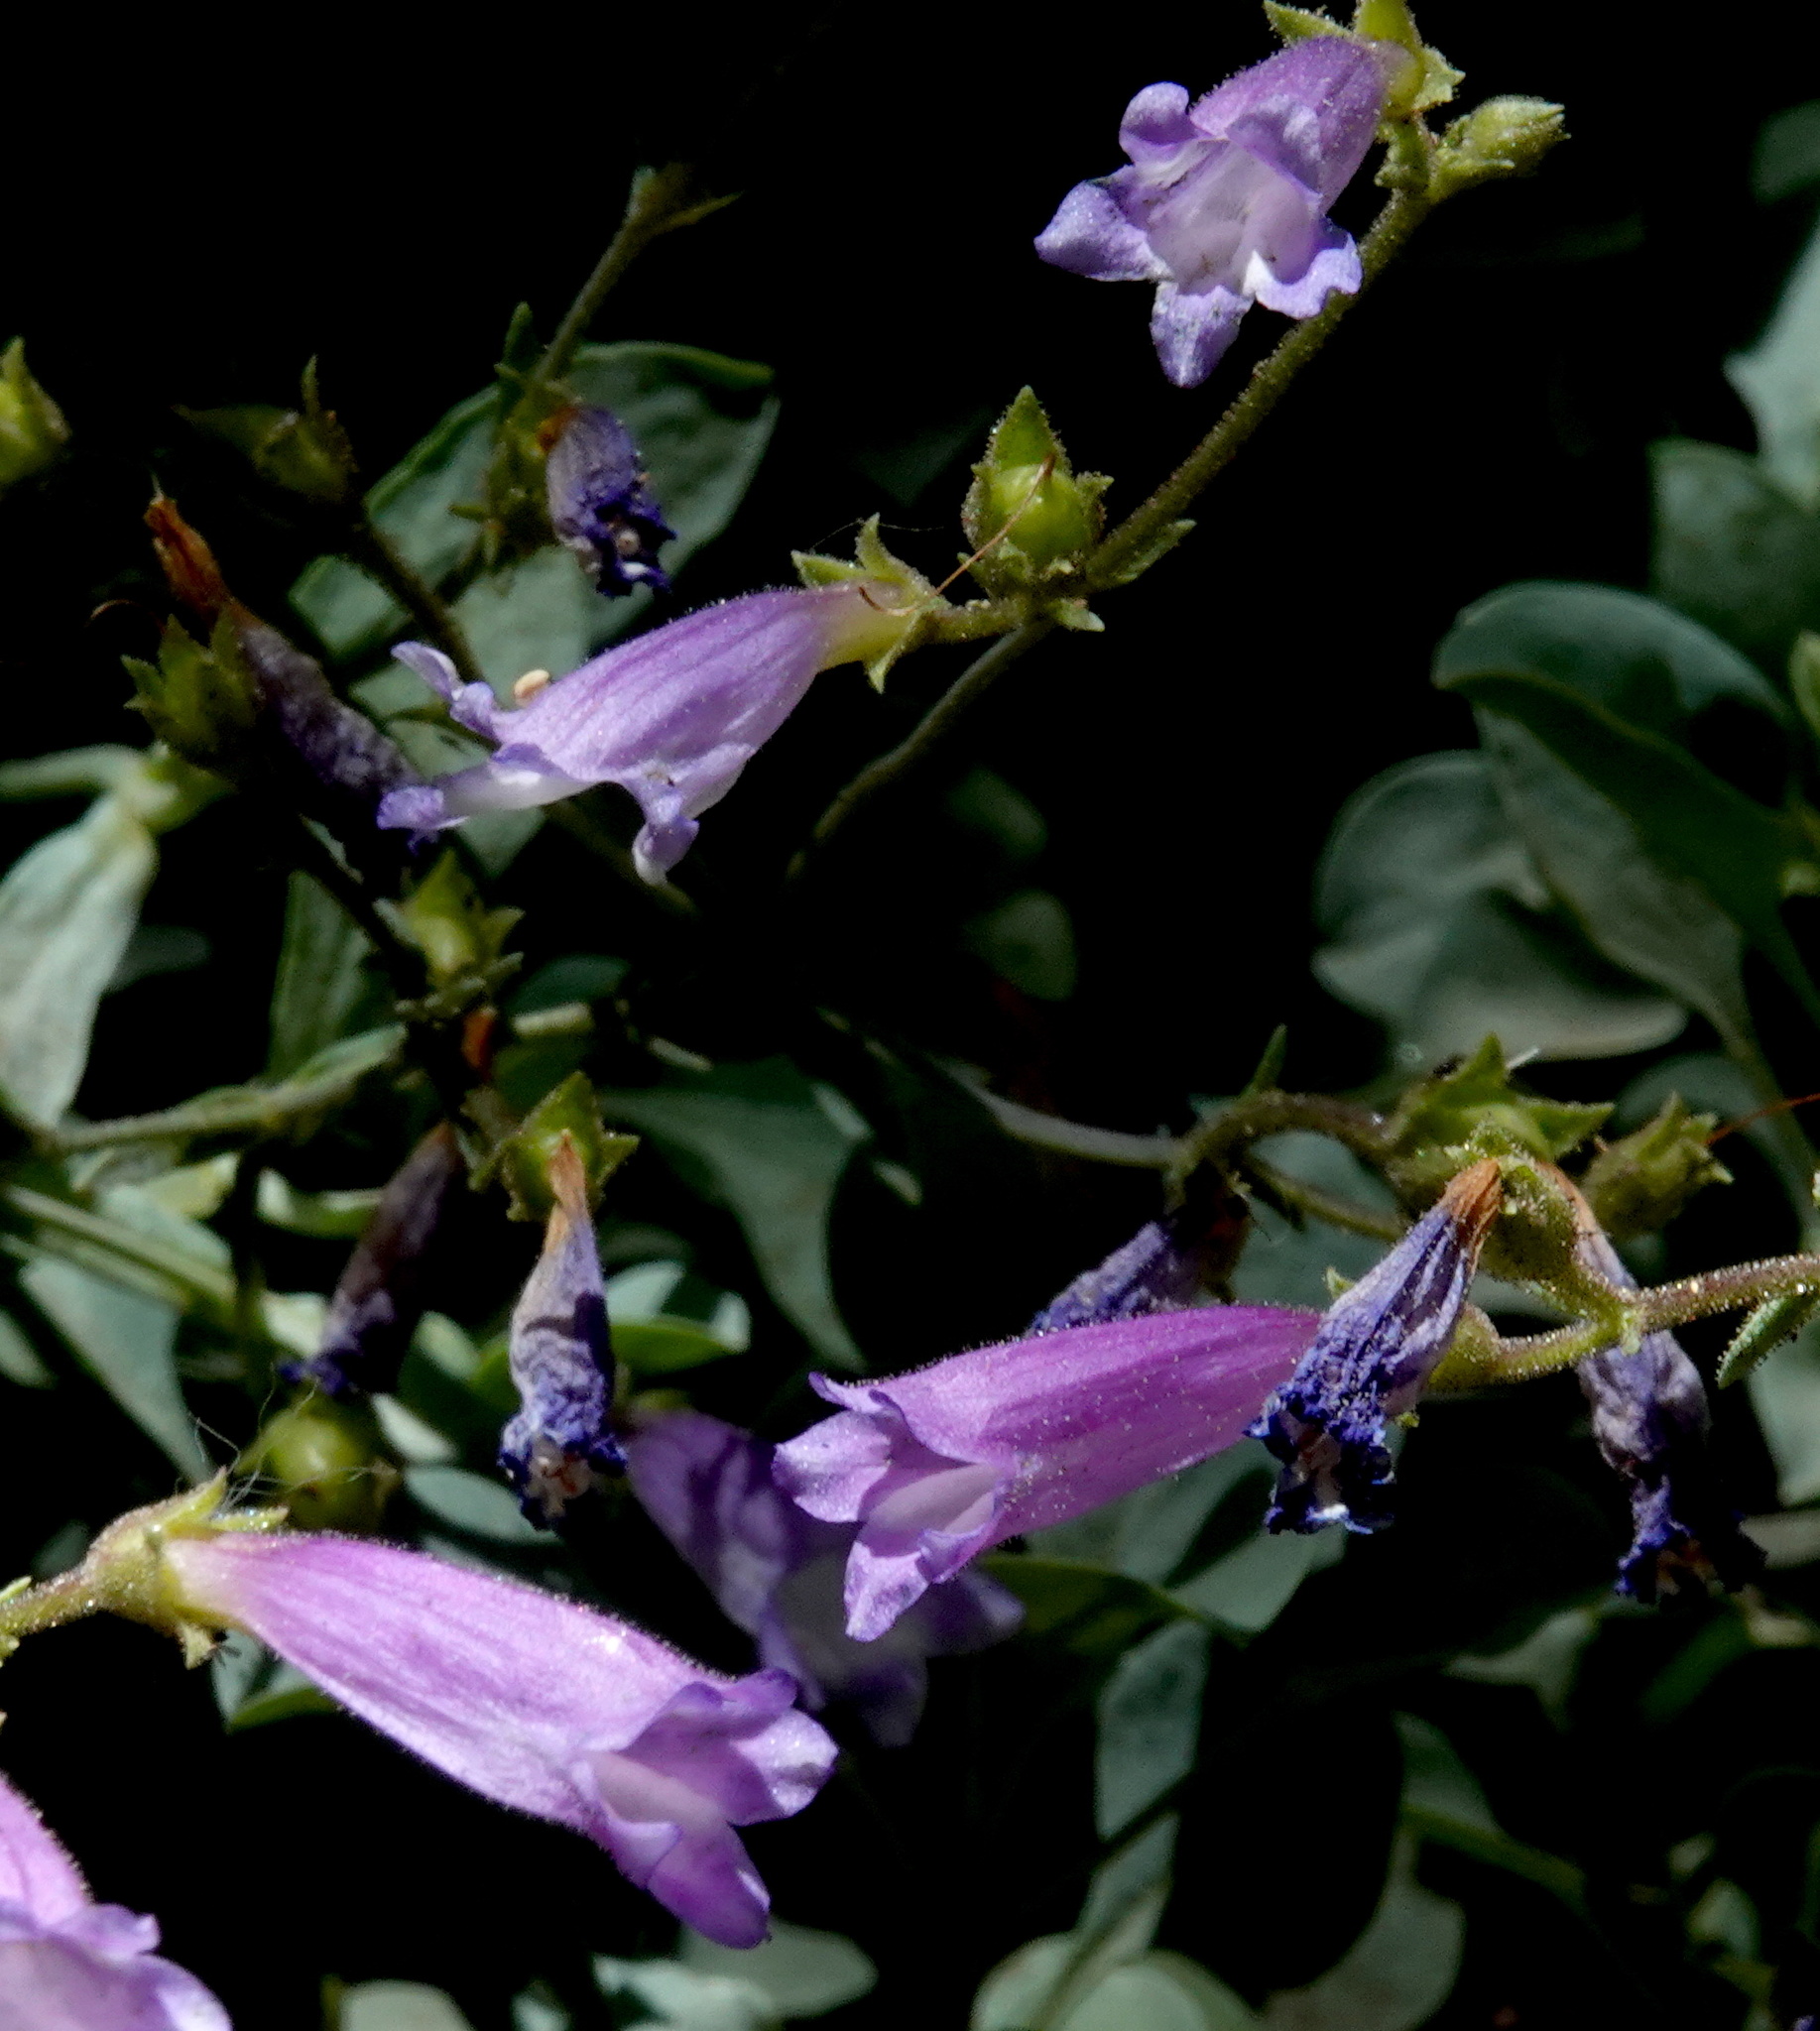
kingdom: Plantae
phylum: Tracheophyta
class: Magnoliopsida
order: Lamiales
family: Plantaginaceae
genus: Penstemon
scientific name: Penstemon caesius
